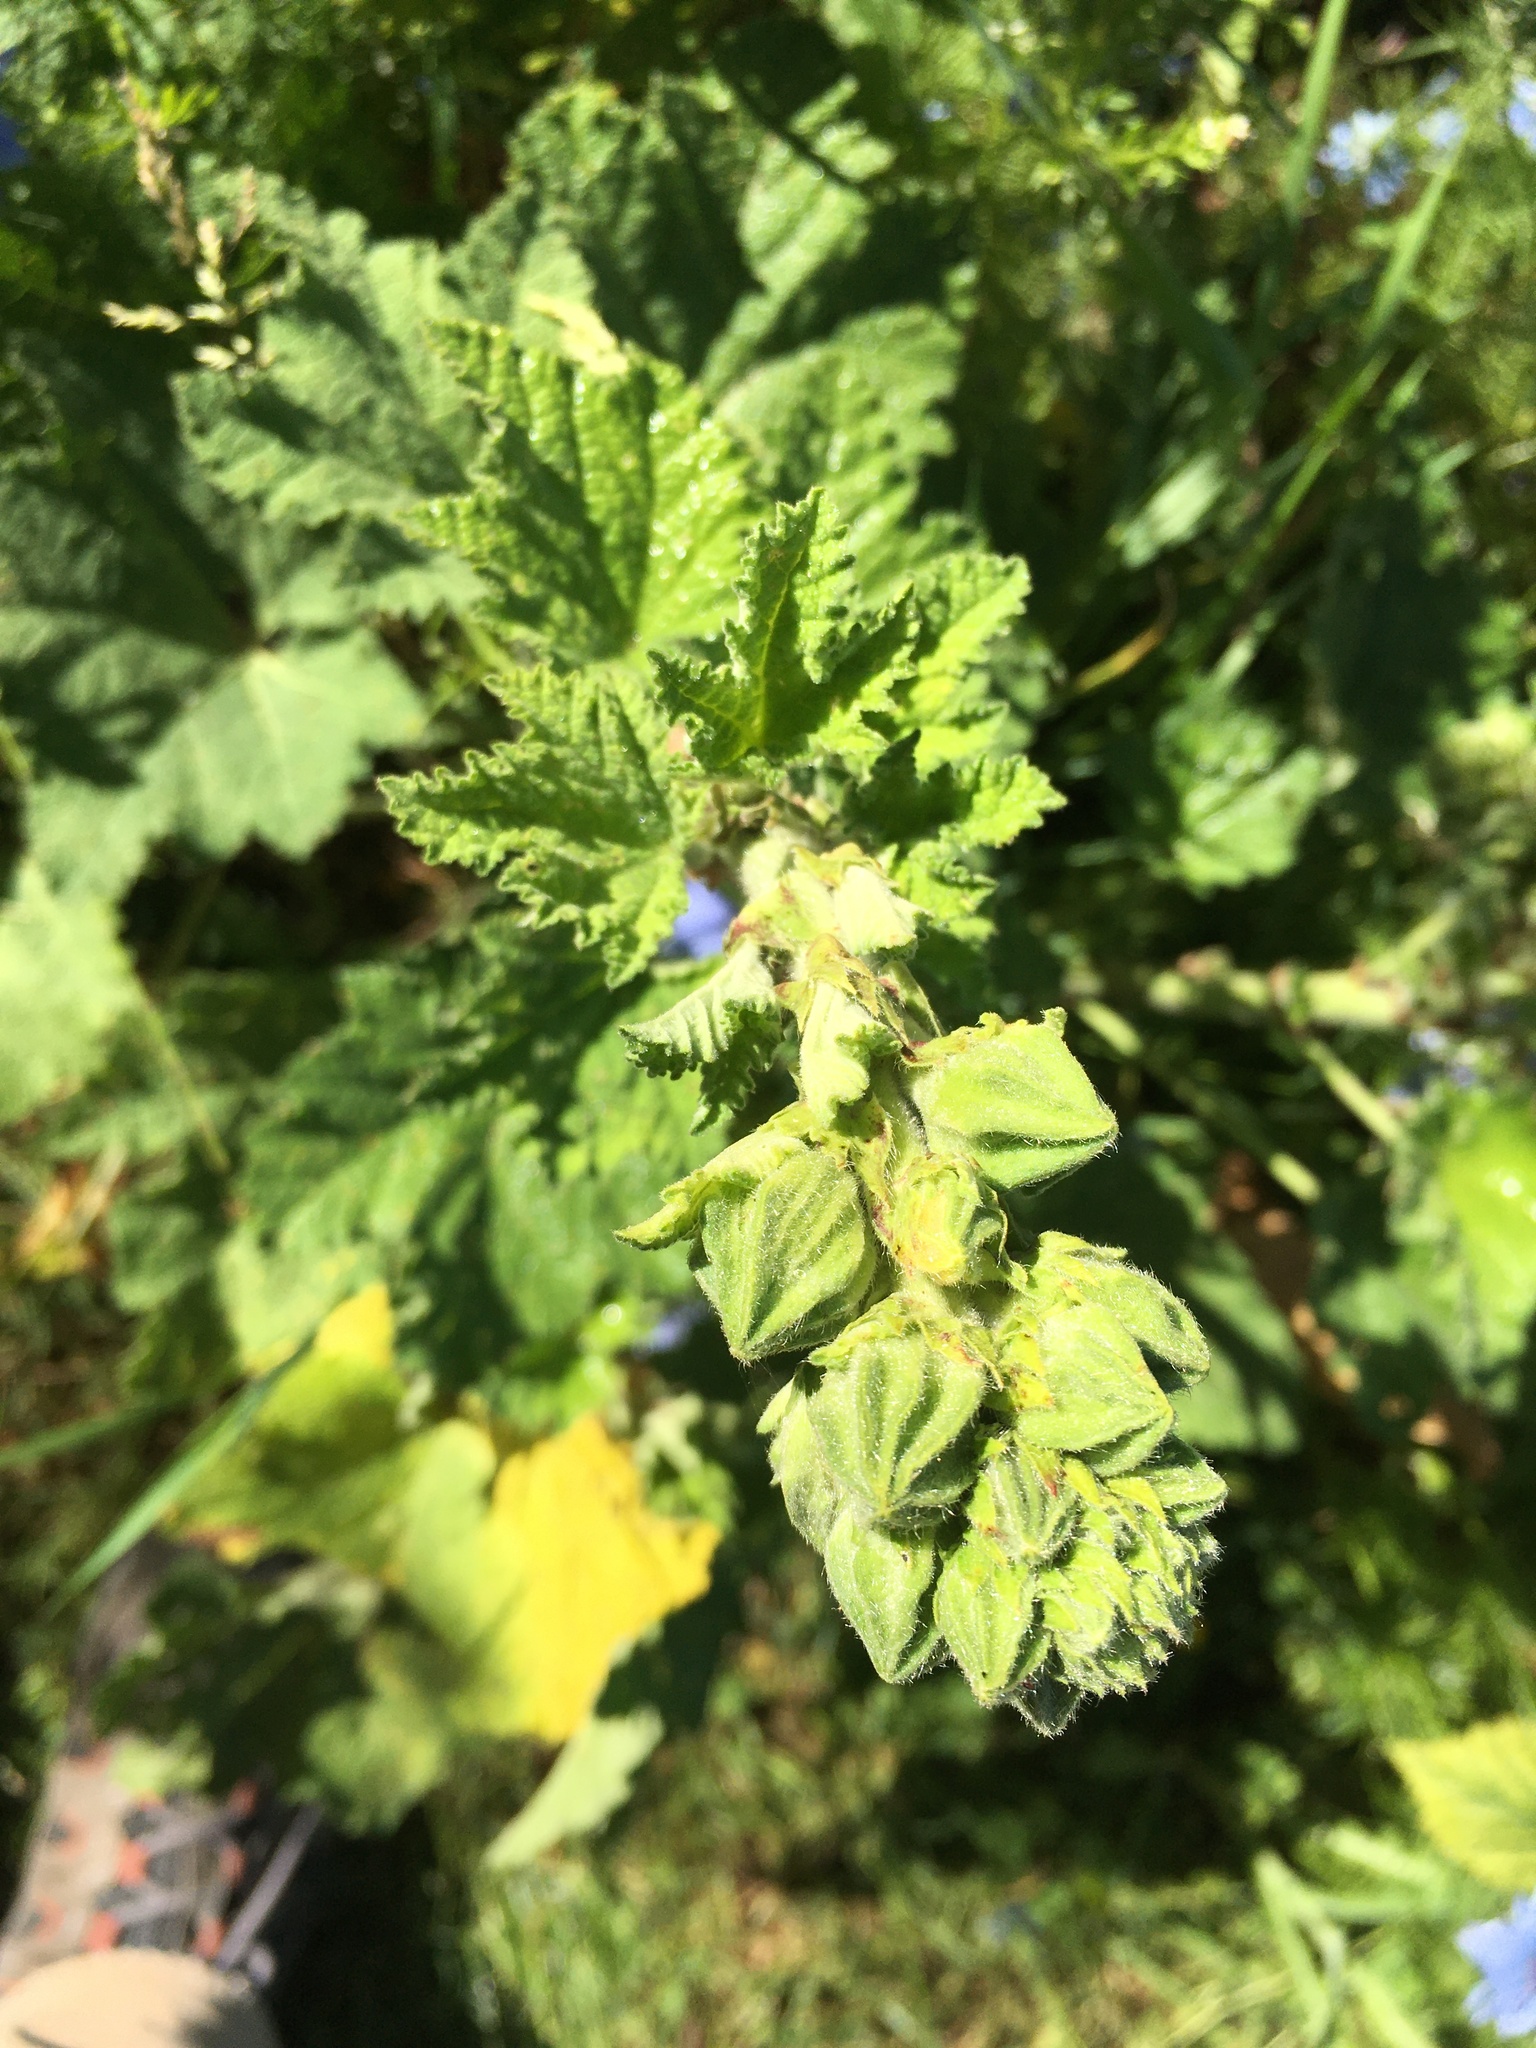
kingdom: Plantae
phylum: Tracheophyta
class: Magnoliopsida
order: Malvales
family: Malvaceae
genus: Alcea
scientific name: Alcea rosea
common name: Hollyhock
